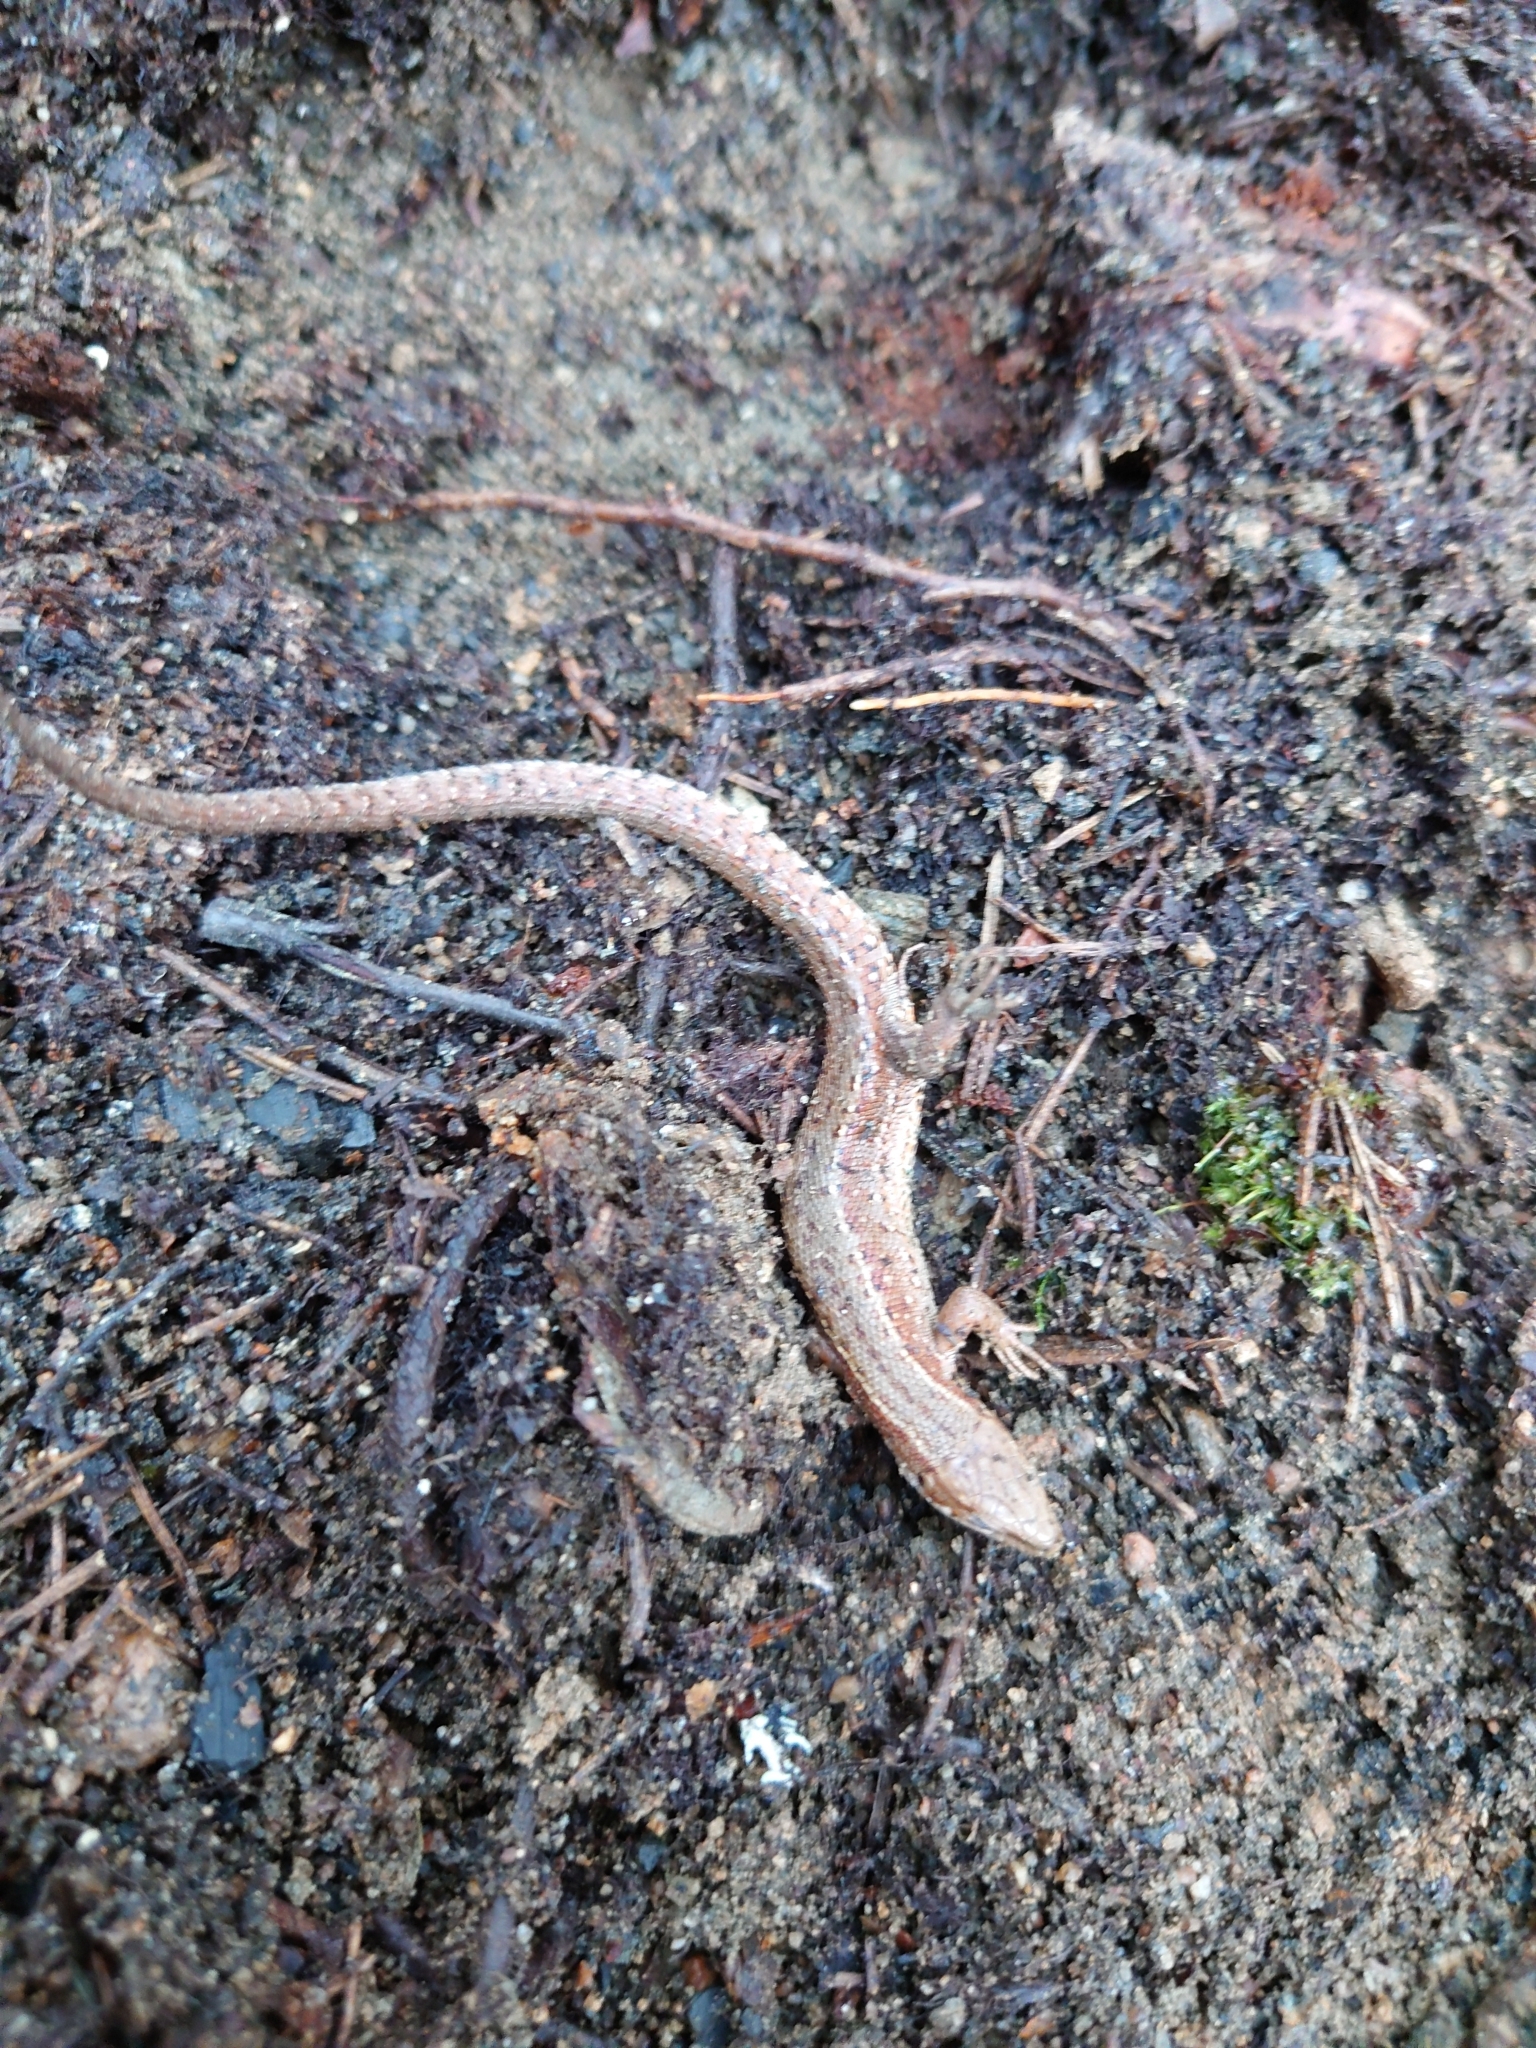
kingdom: Animalia
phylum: Chordata
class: Squamata
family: Lacertidae
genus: Zootoca
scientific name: Zootoca vivipara
